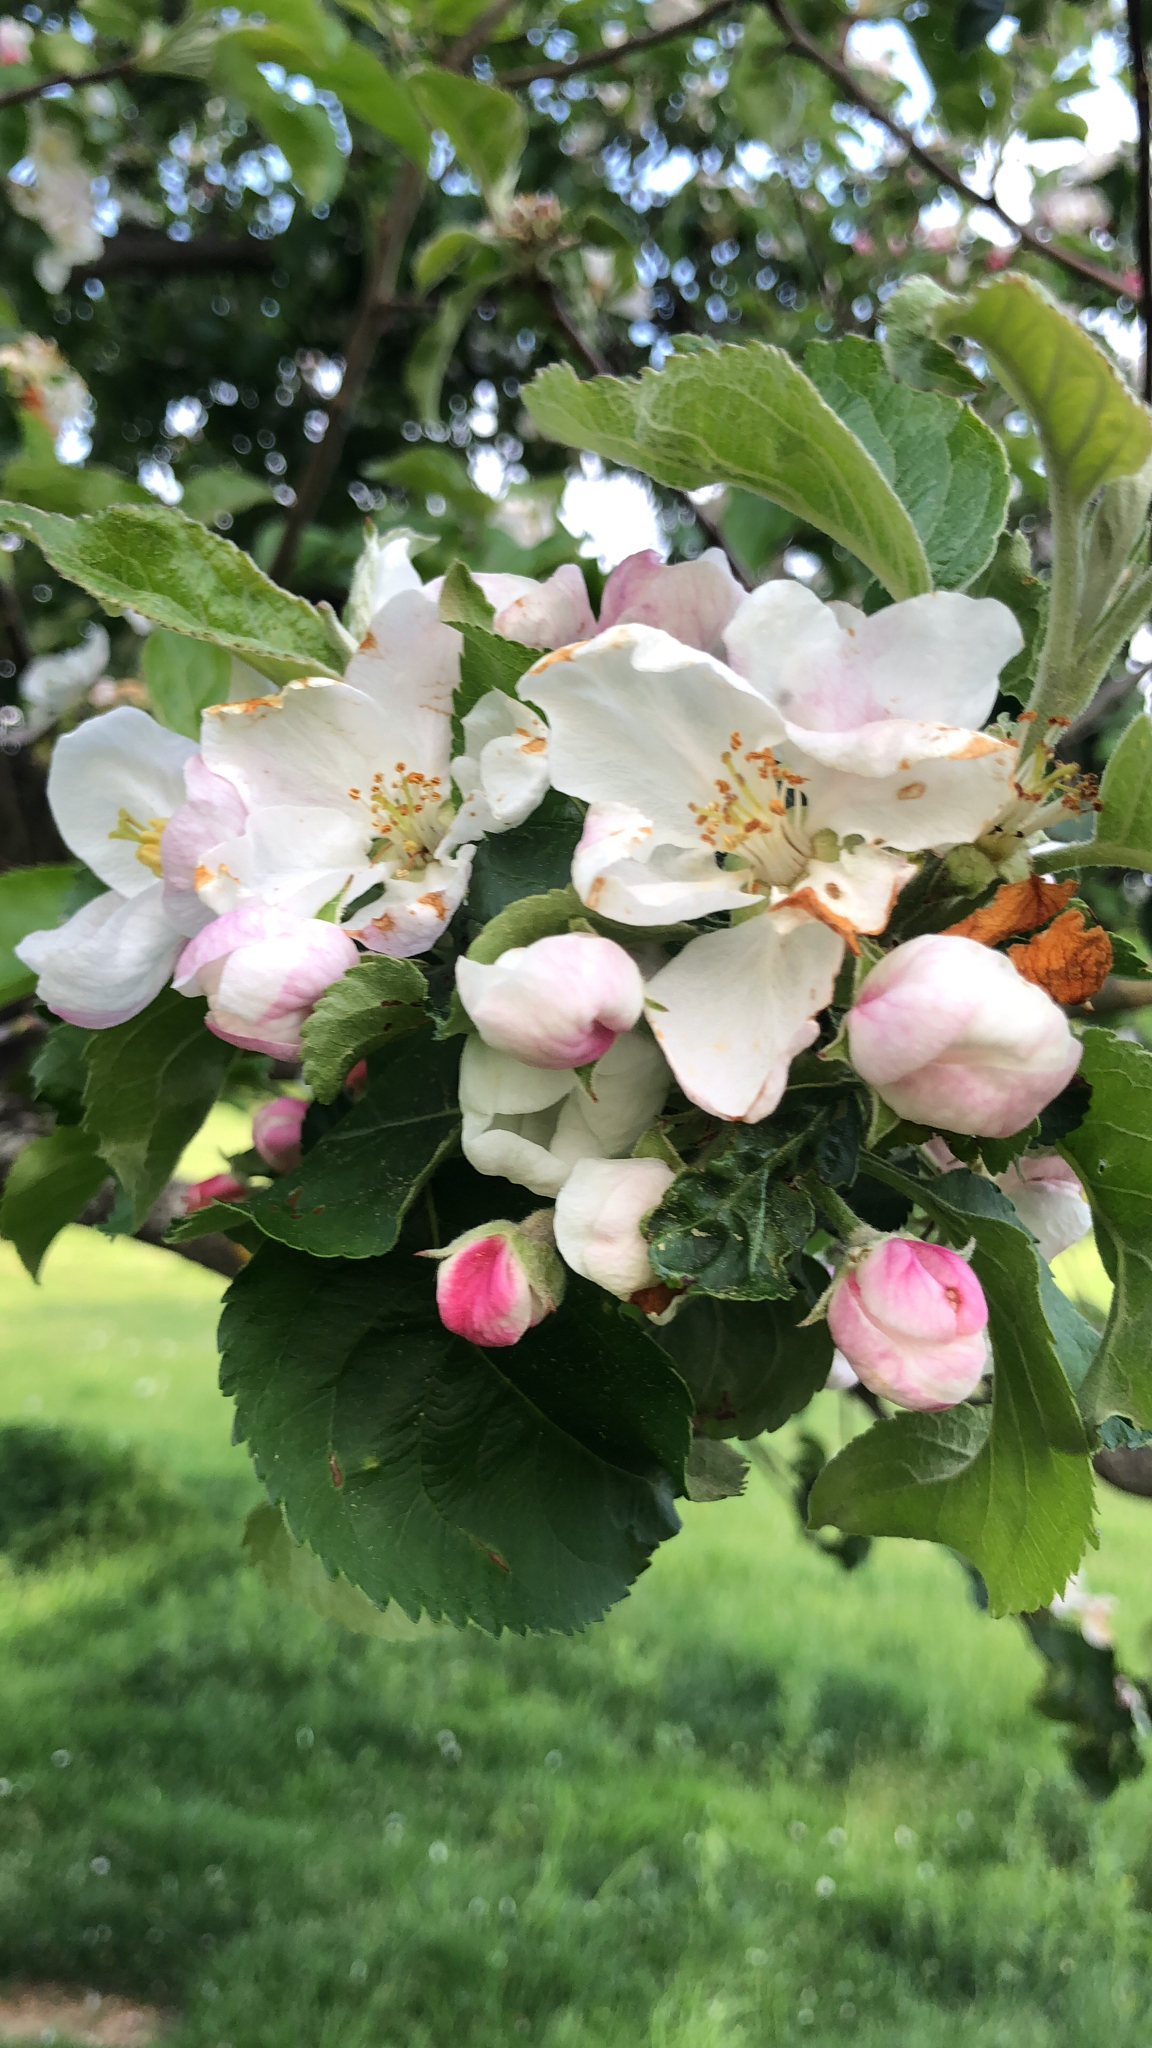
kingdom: Plantae
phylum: Tracheophyta
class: Magnoliopsida
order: Rosales
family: Rosaceae
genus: Malus
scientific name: Malus domestica
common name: Apple
